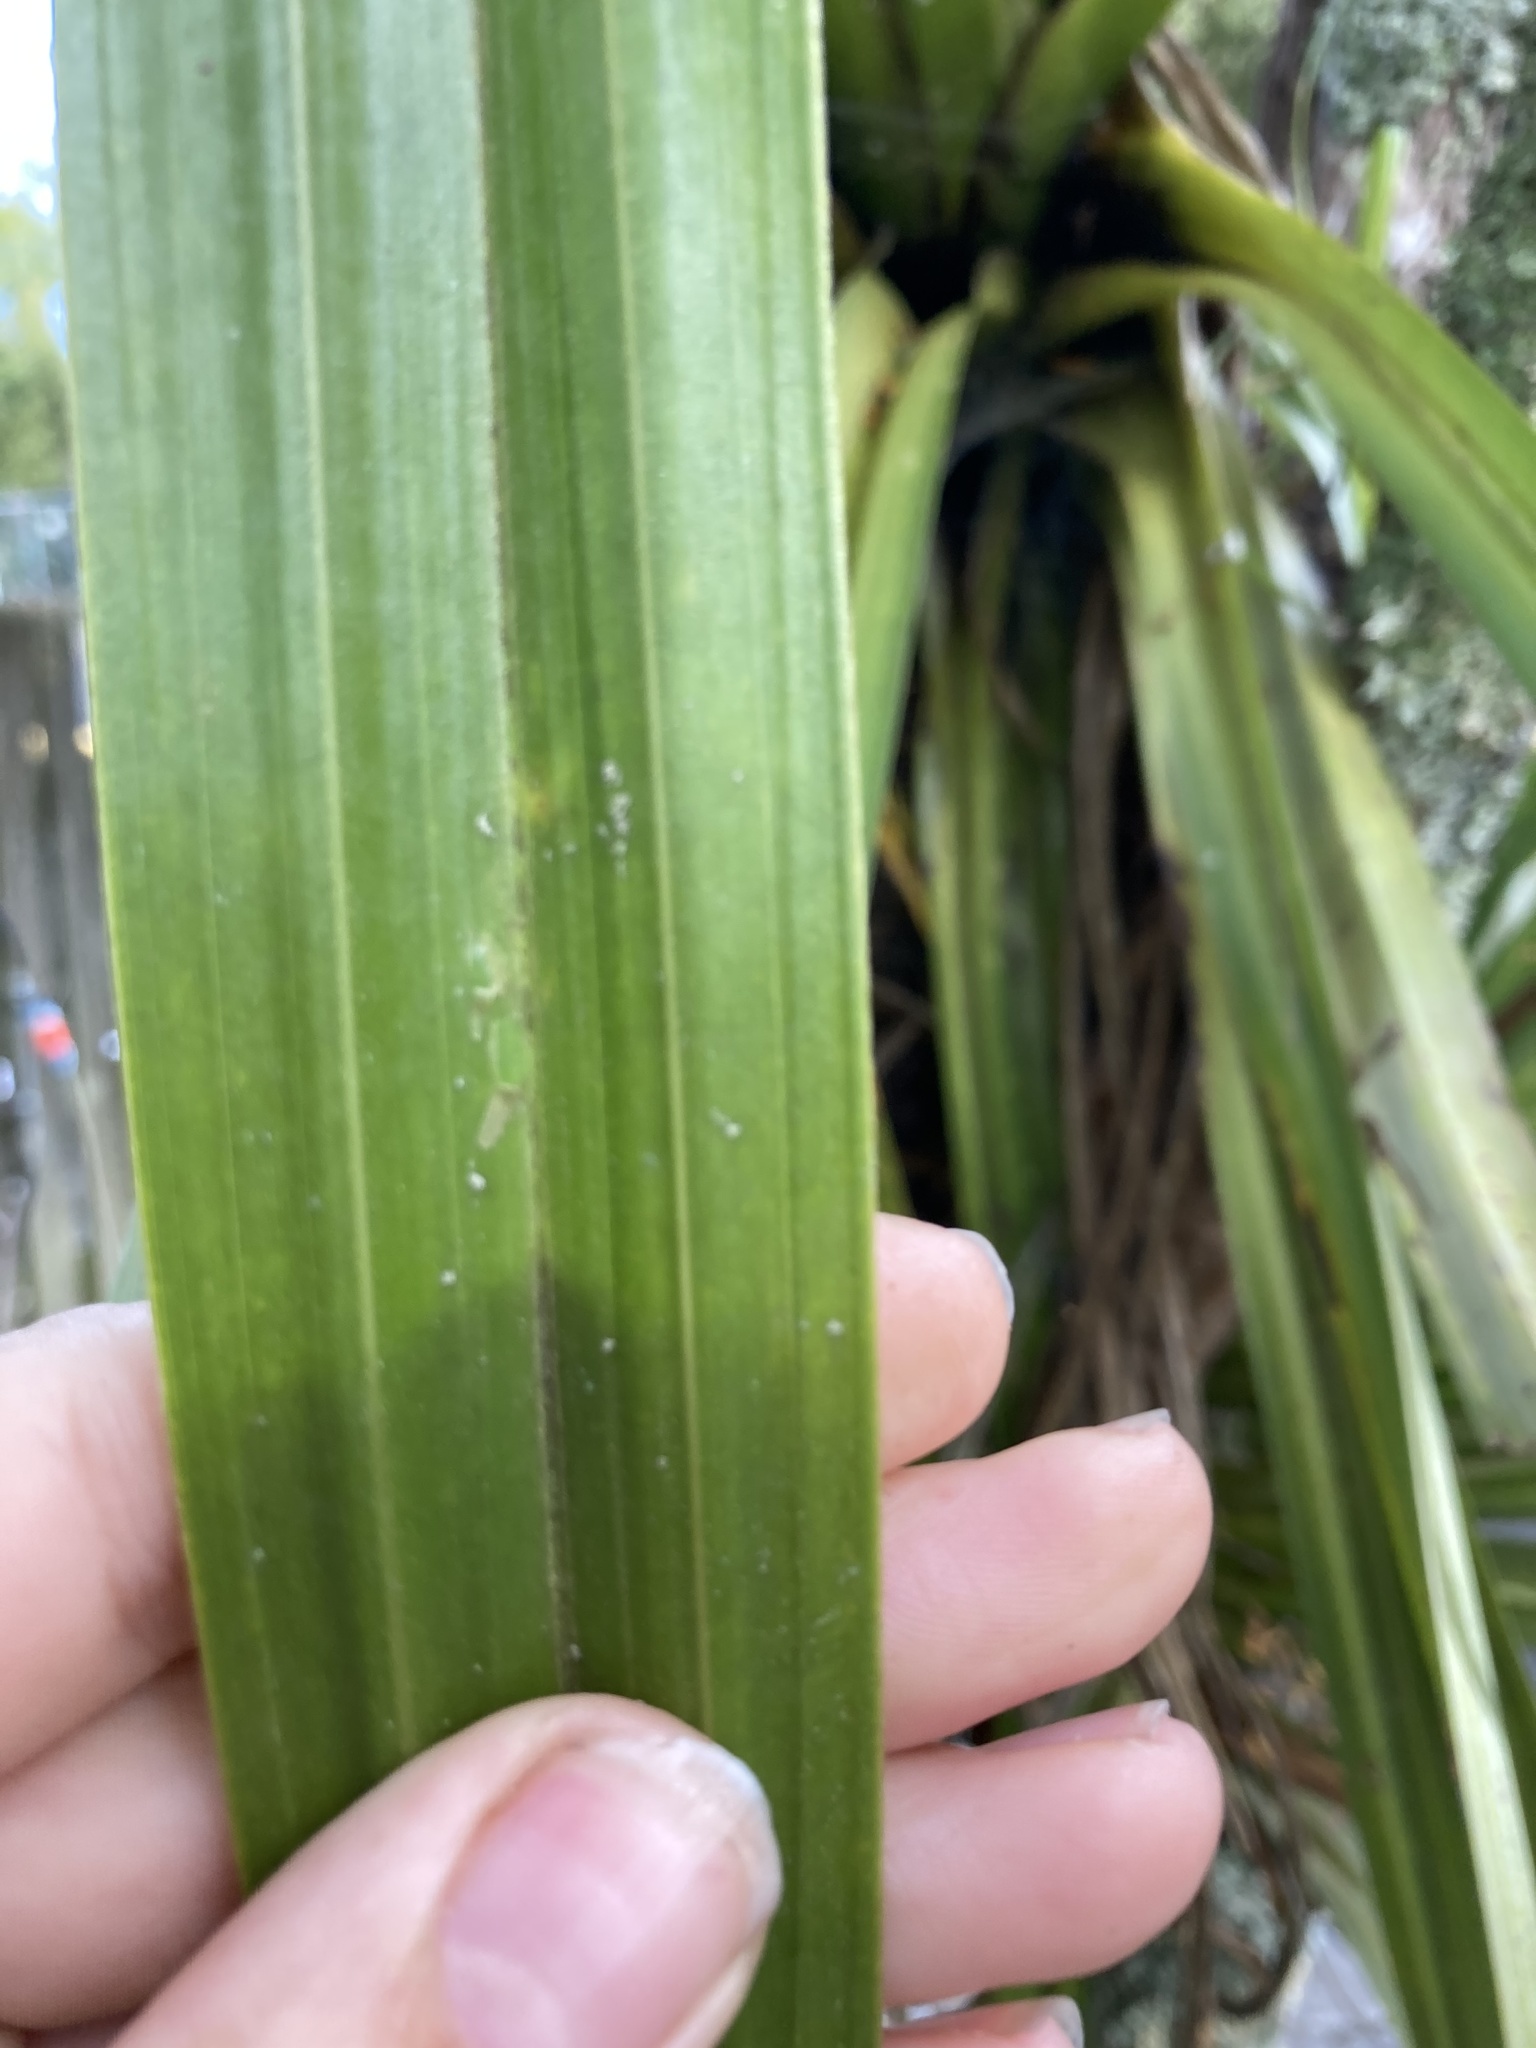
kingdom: Plantae
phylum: Tracheophyta
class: Liliopsida
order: Asparagales
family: Asteliaceae
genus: Astelia
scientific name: Astelia hastata
